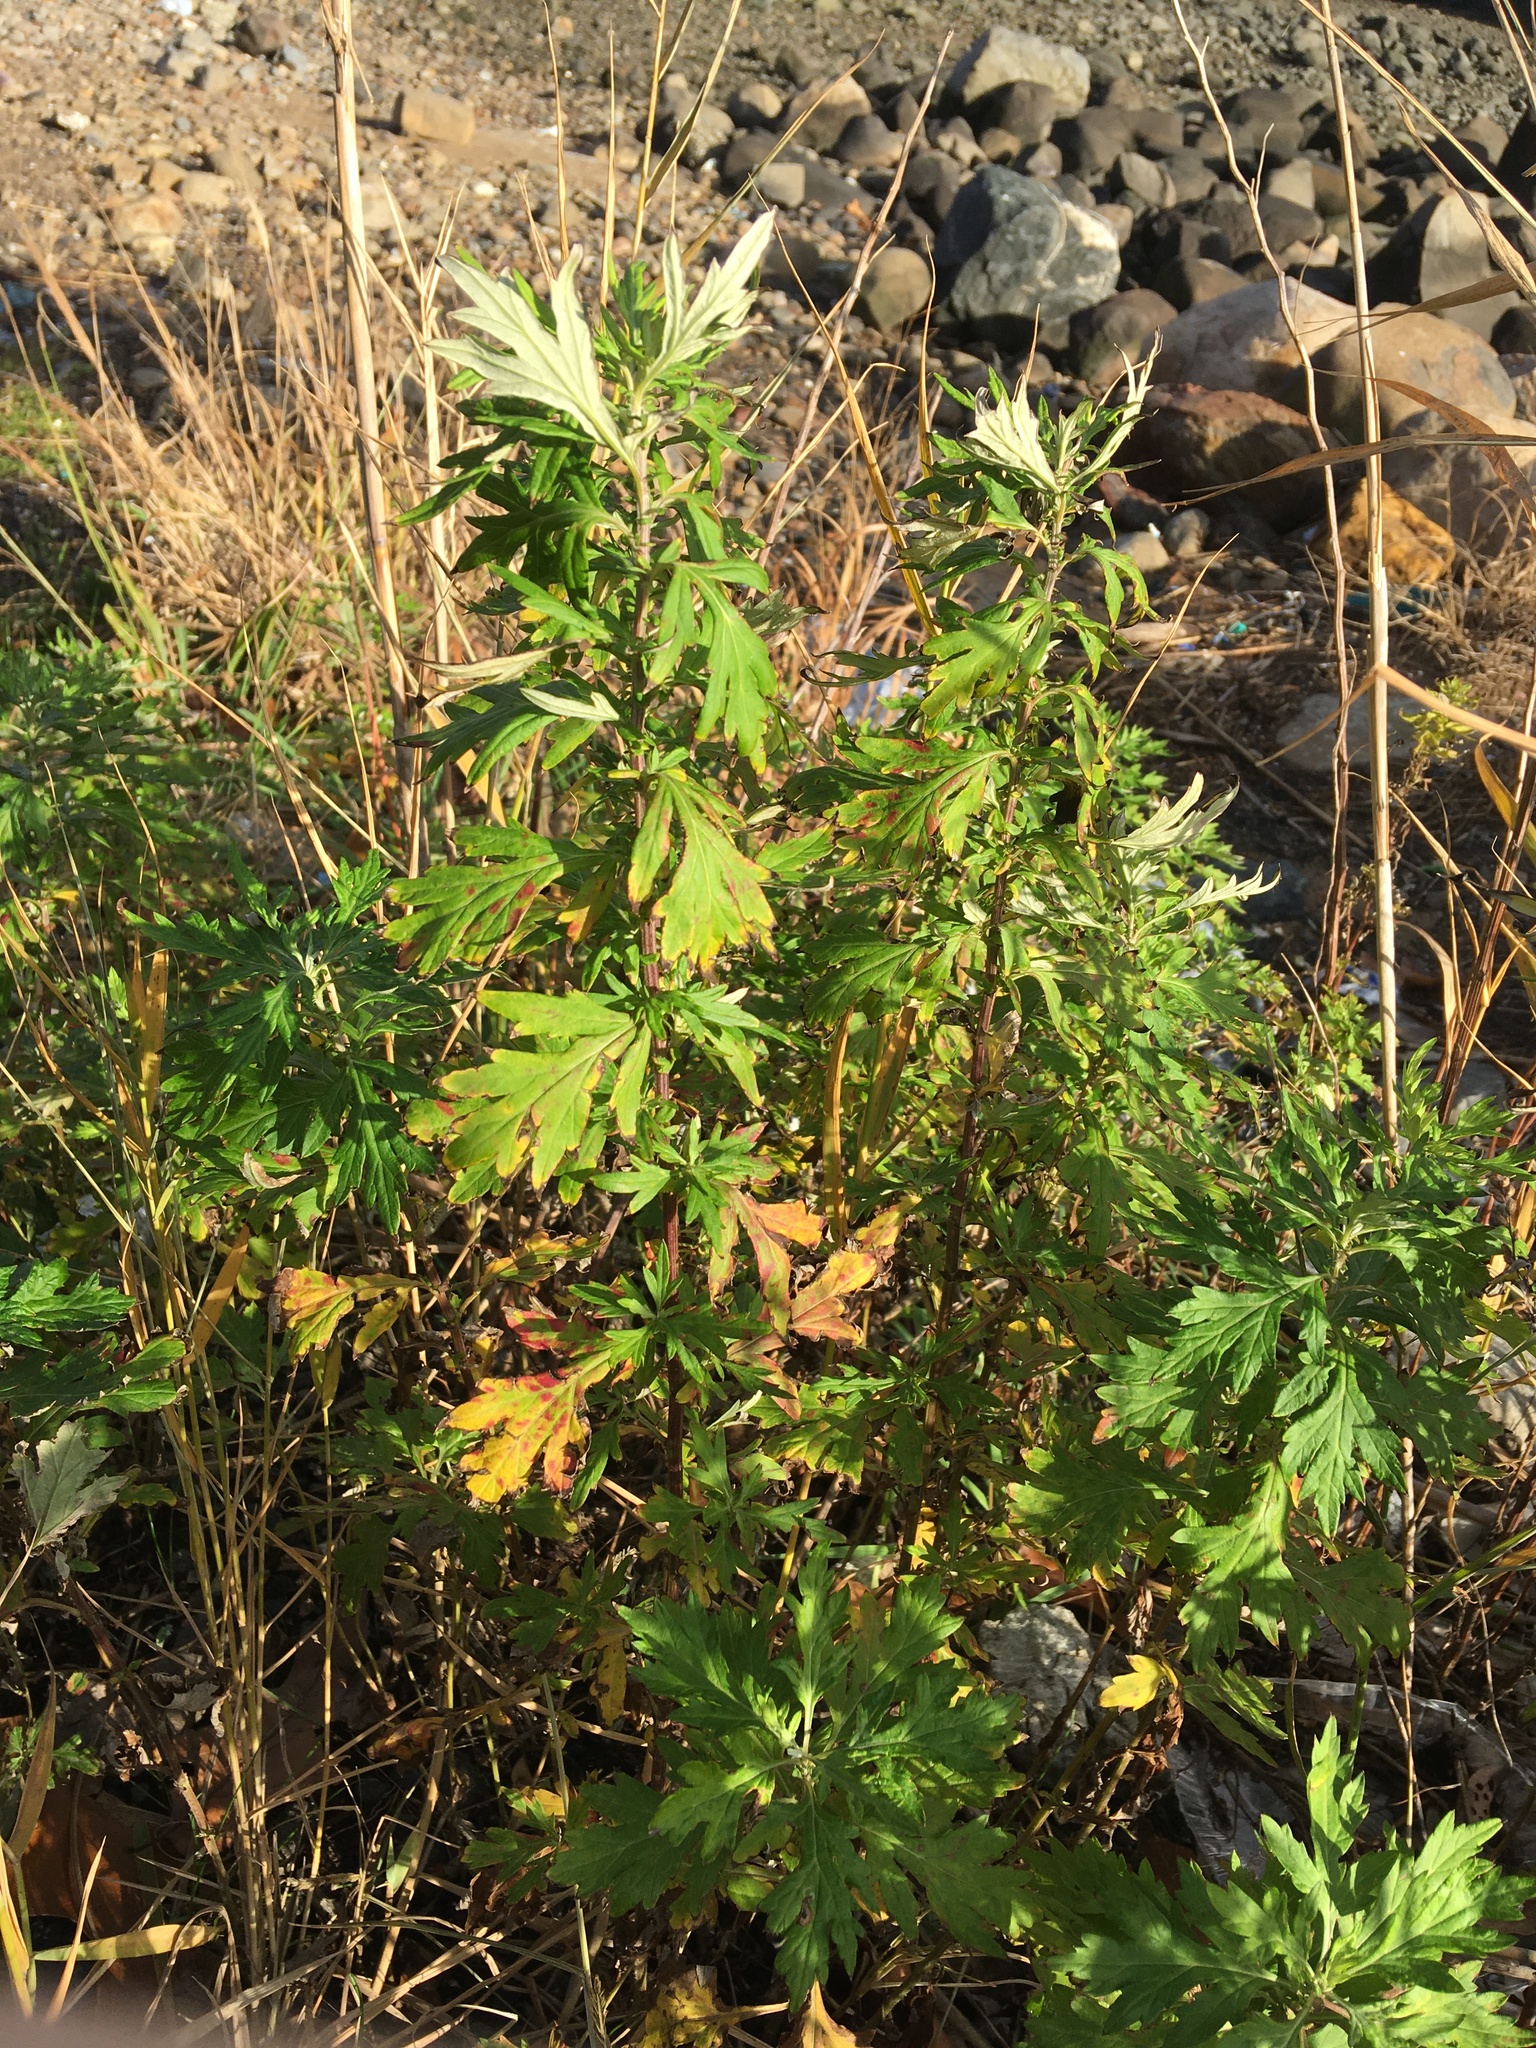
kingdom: Plantae
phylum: Tracheophyta
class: Magnoliopsida
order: Asterales
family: Asteraceae
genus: Artemisia
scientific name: Artemisia vulgaris
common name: Mugwort
